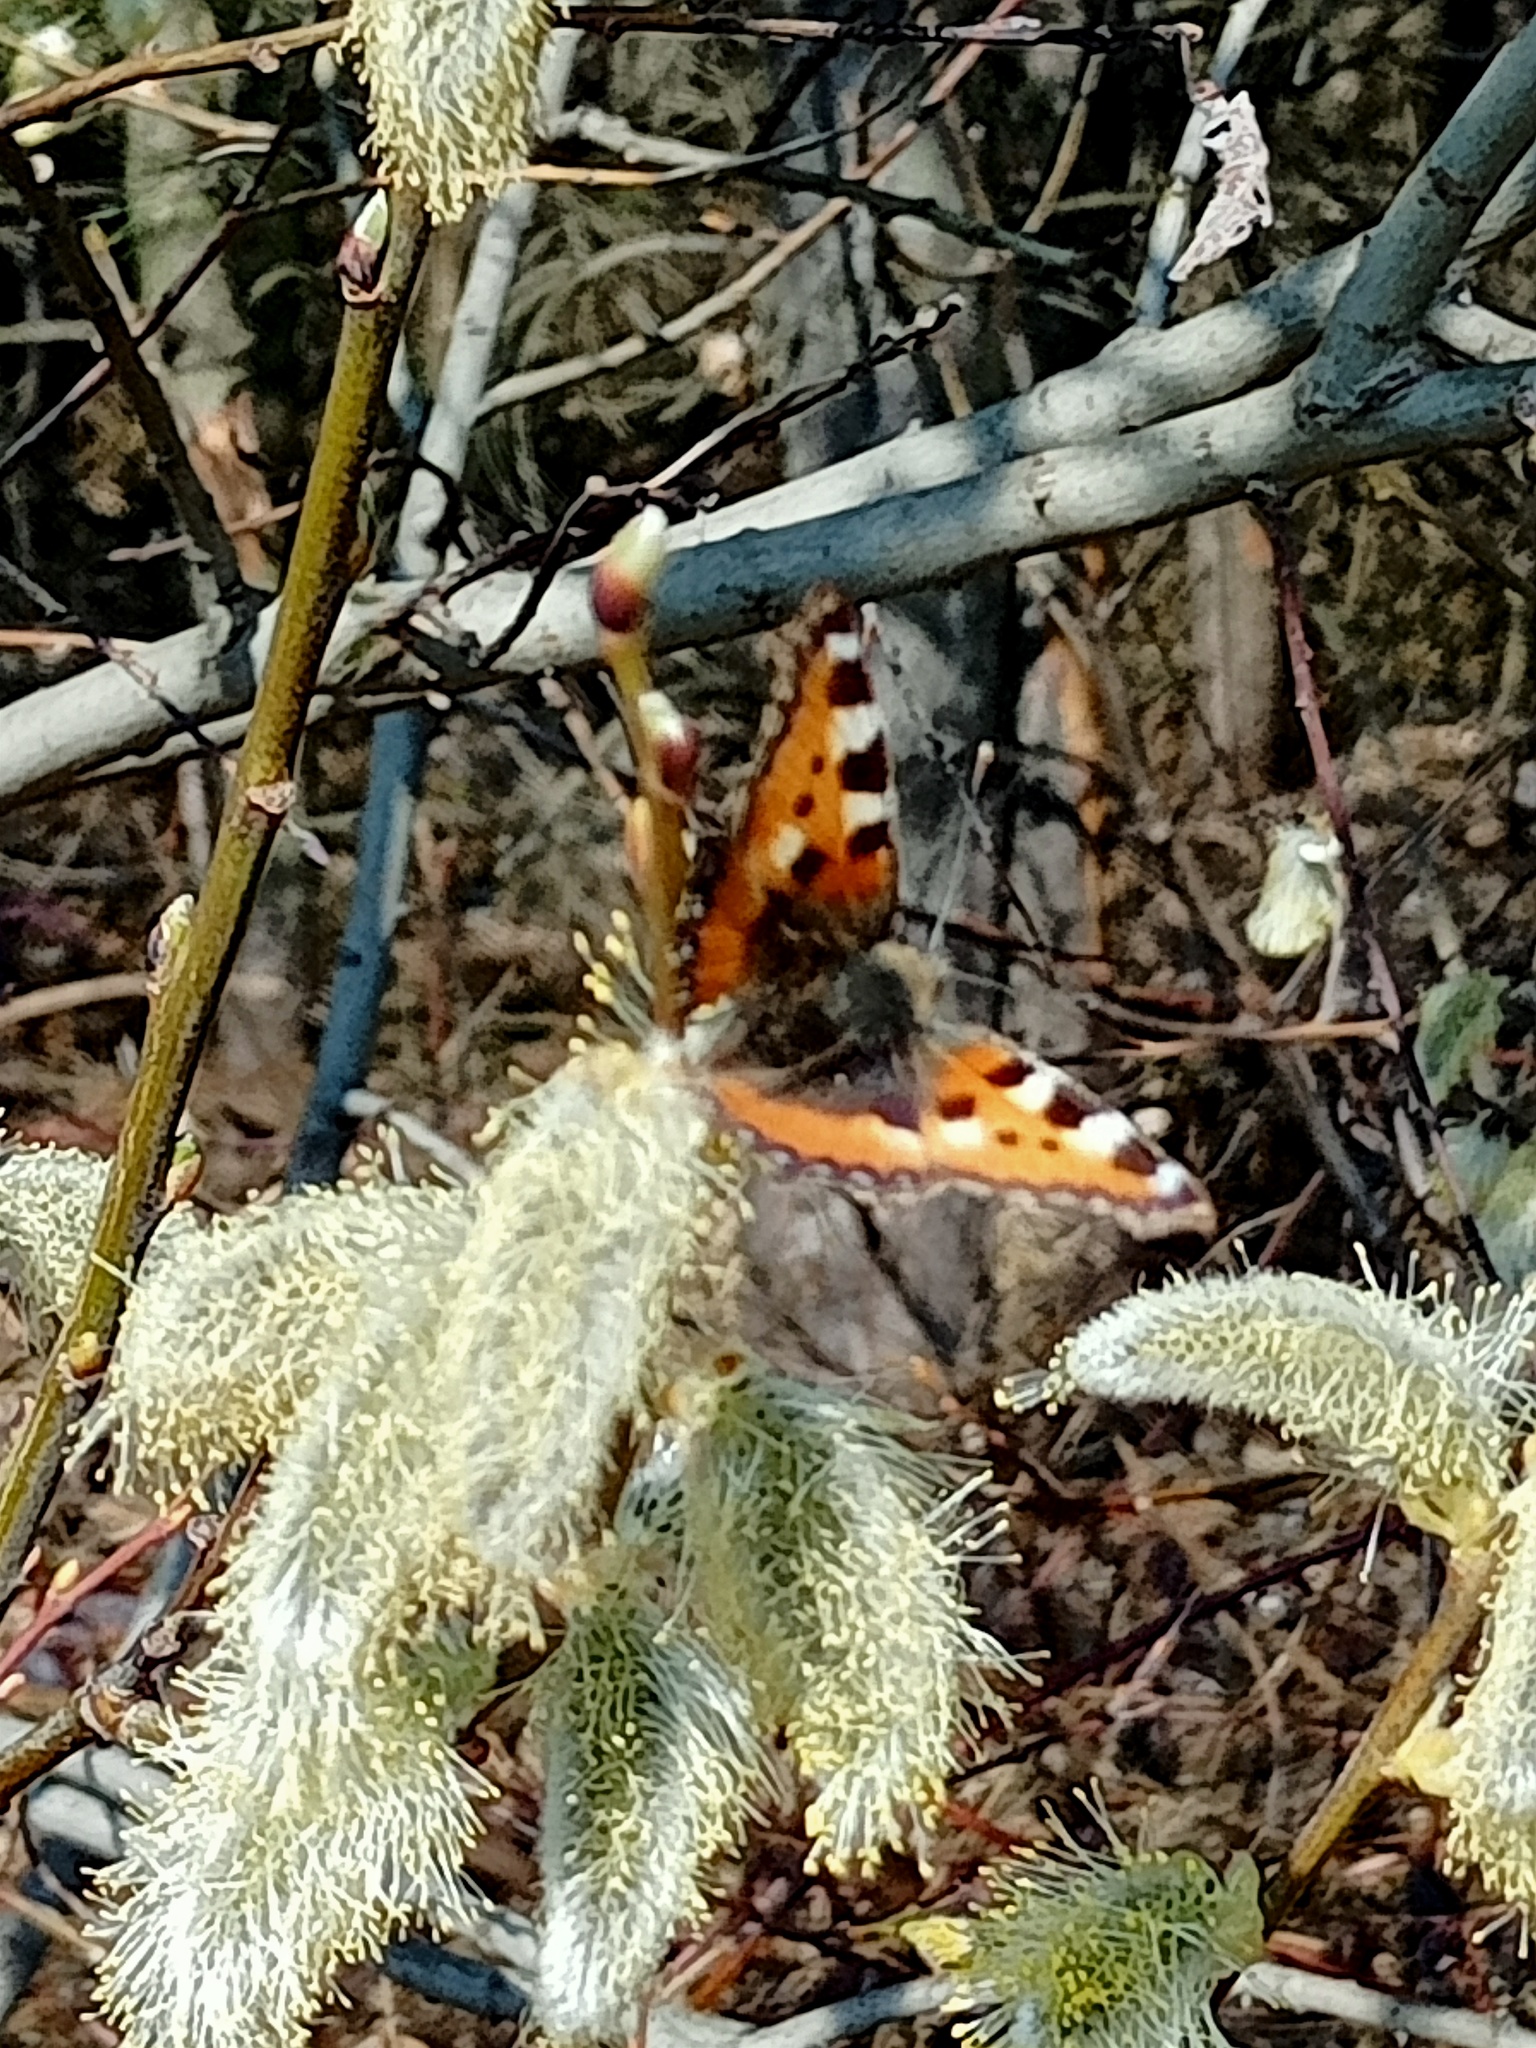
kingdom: Animalia
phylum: Arthropoda
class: Insecta
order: Lepidoptera
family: Nymphalidae
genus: Aglais
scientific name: Aglais urticae
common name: Small tortoiseshell
